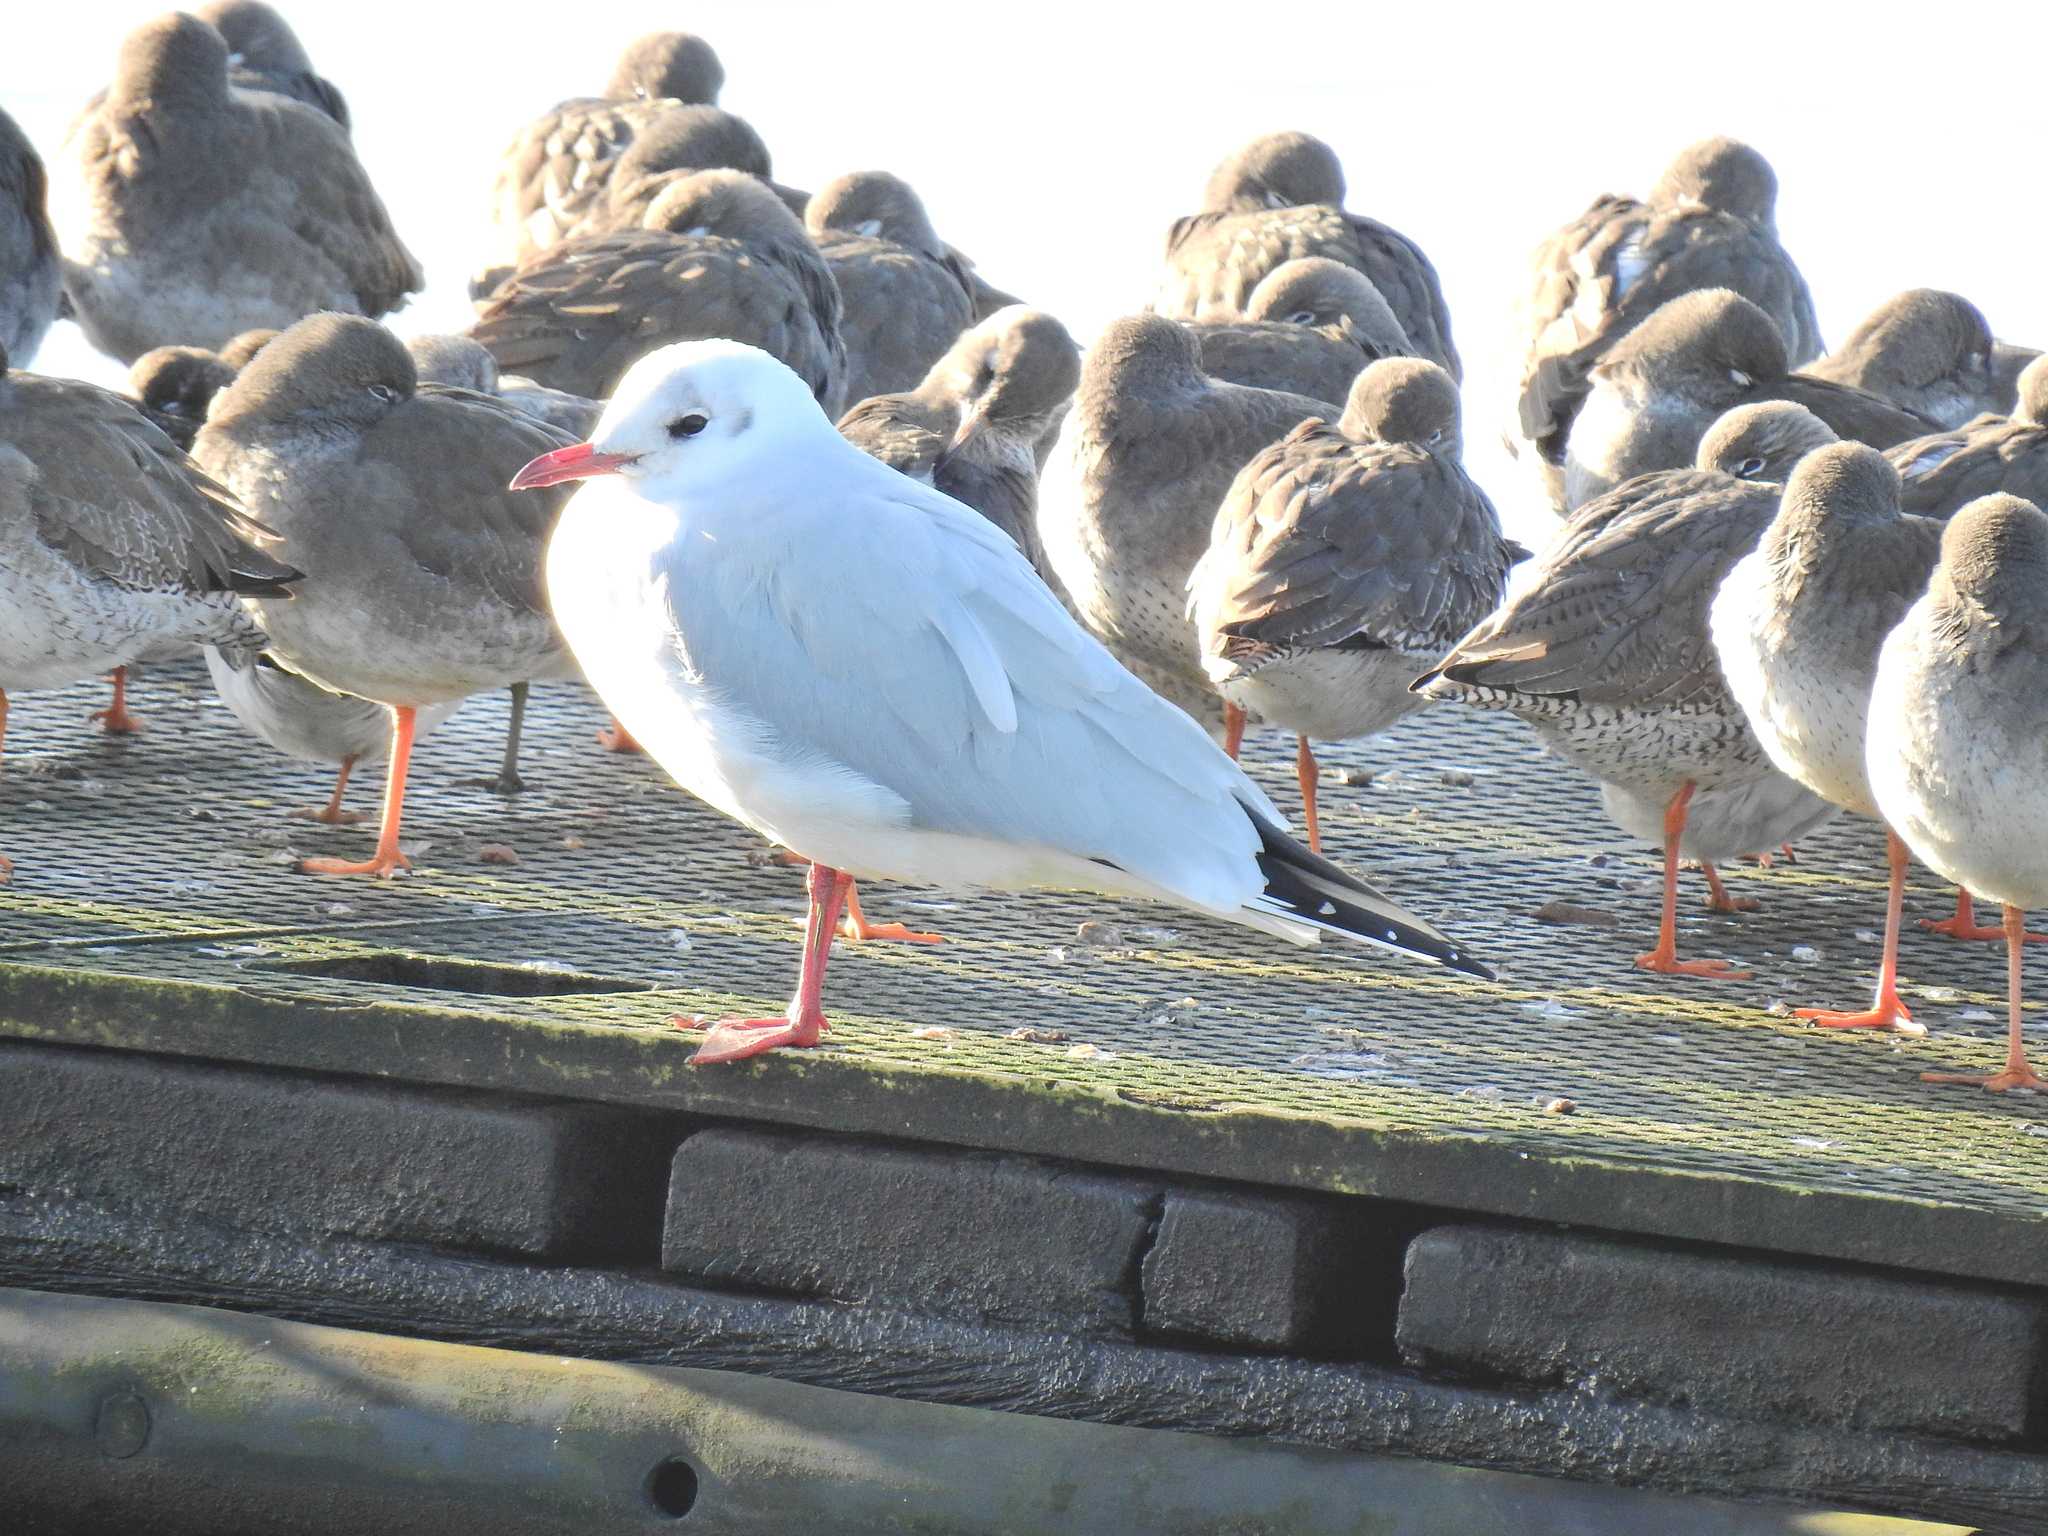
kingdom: Animalia
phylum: Chordata
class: Aves
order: Charadriiformes
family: Laridae
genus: Chroicocephalus
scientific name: Chroicocephalus ridibundus
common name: Black-headed gull
